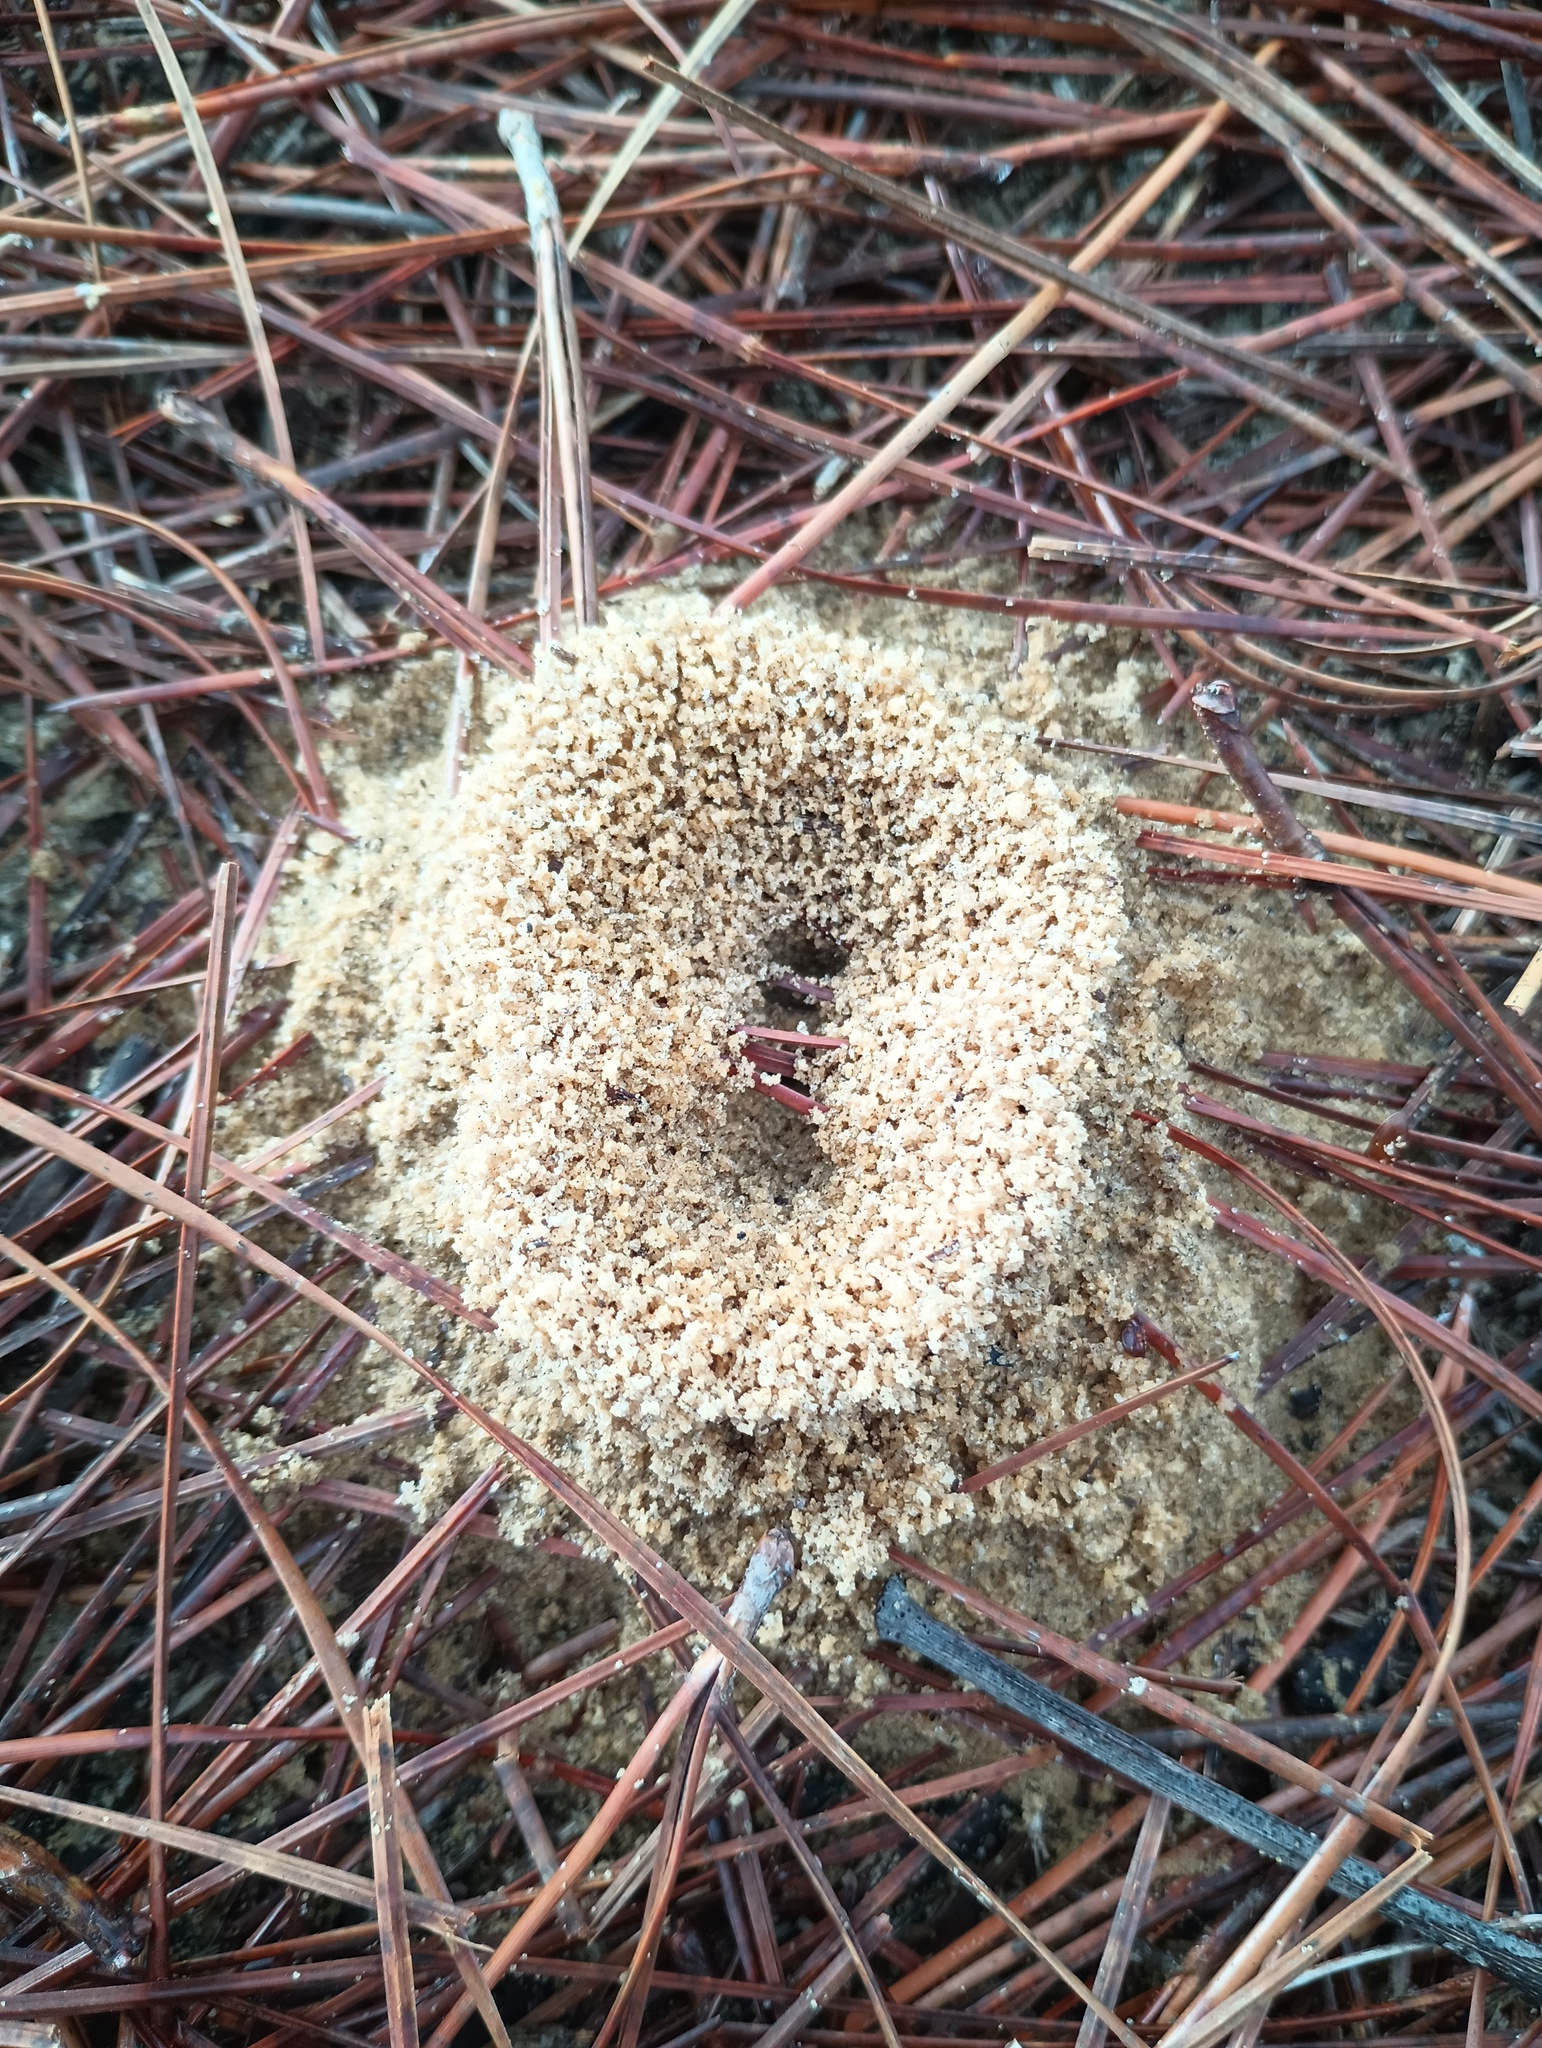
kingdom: Animalia
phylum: Arthropoda
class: Insecta
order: Hymenoptera
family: Formicidae
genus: Dorymyrmex
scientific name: Dorymyrmex bureni
